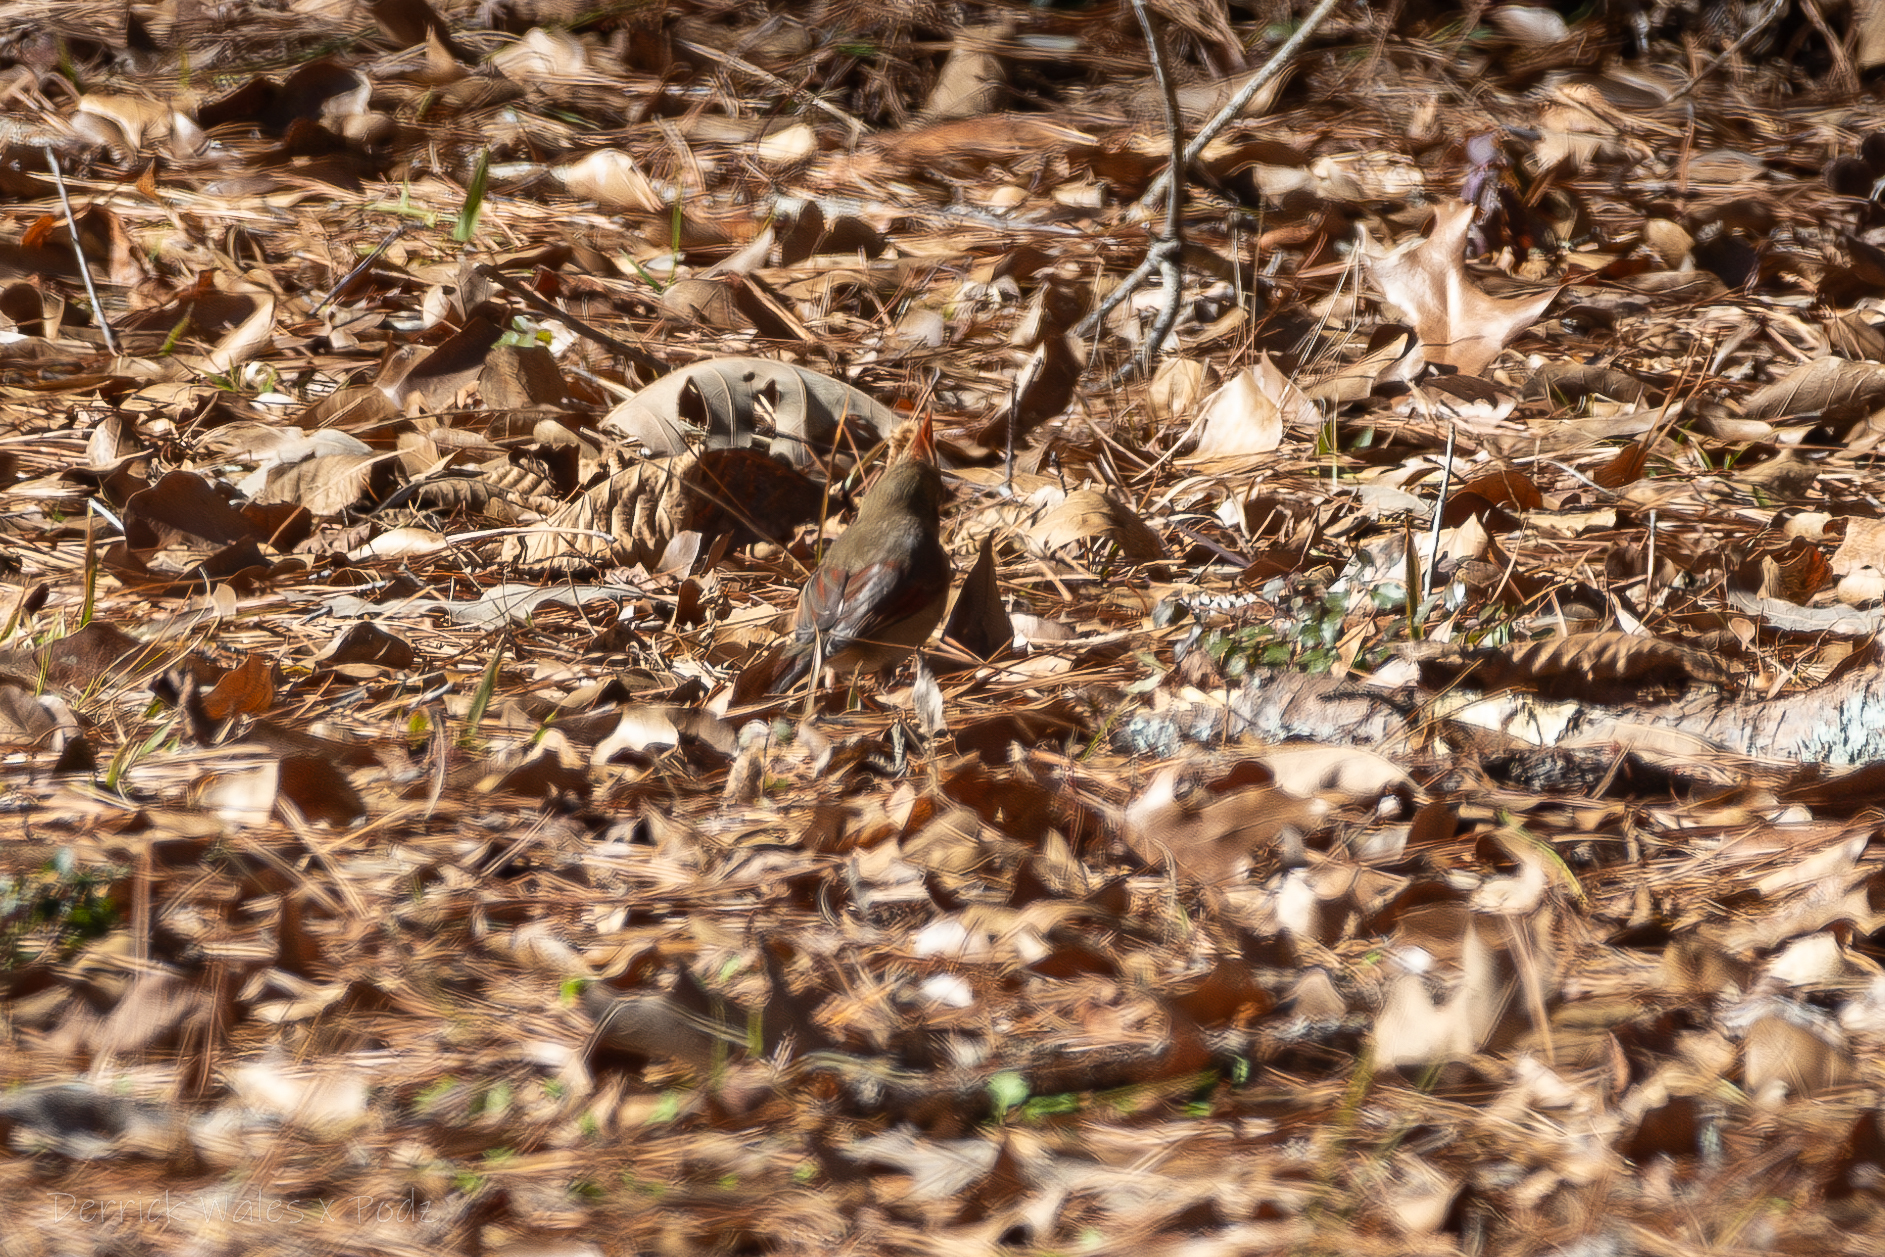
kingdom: Animalia
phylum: Chordata
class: Aves
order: Passeriformes
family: Cardinalidae
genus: Cardinalis
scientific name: Cardinalis cardinalis
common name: Northern cardinal
